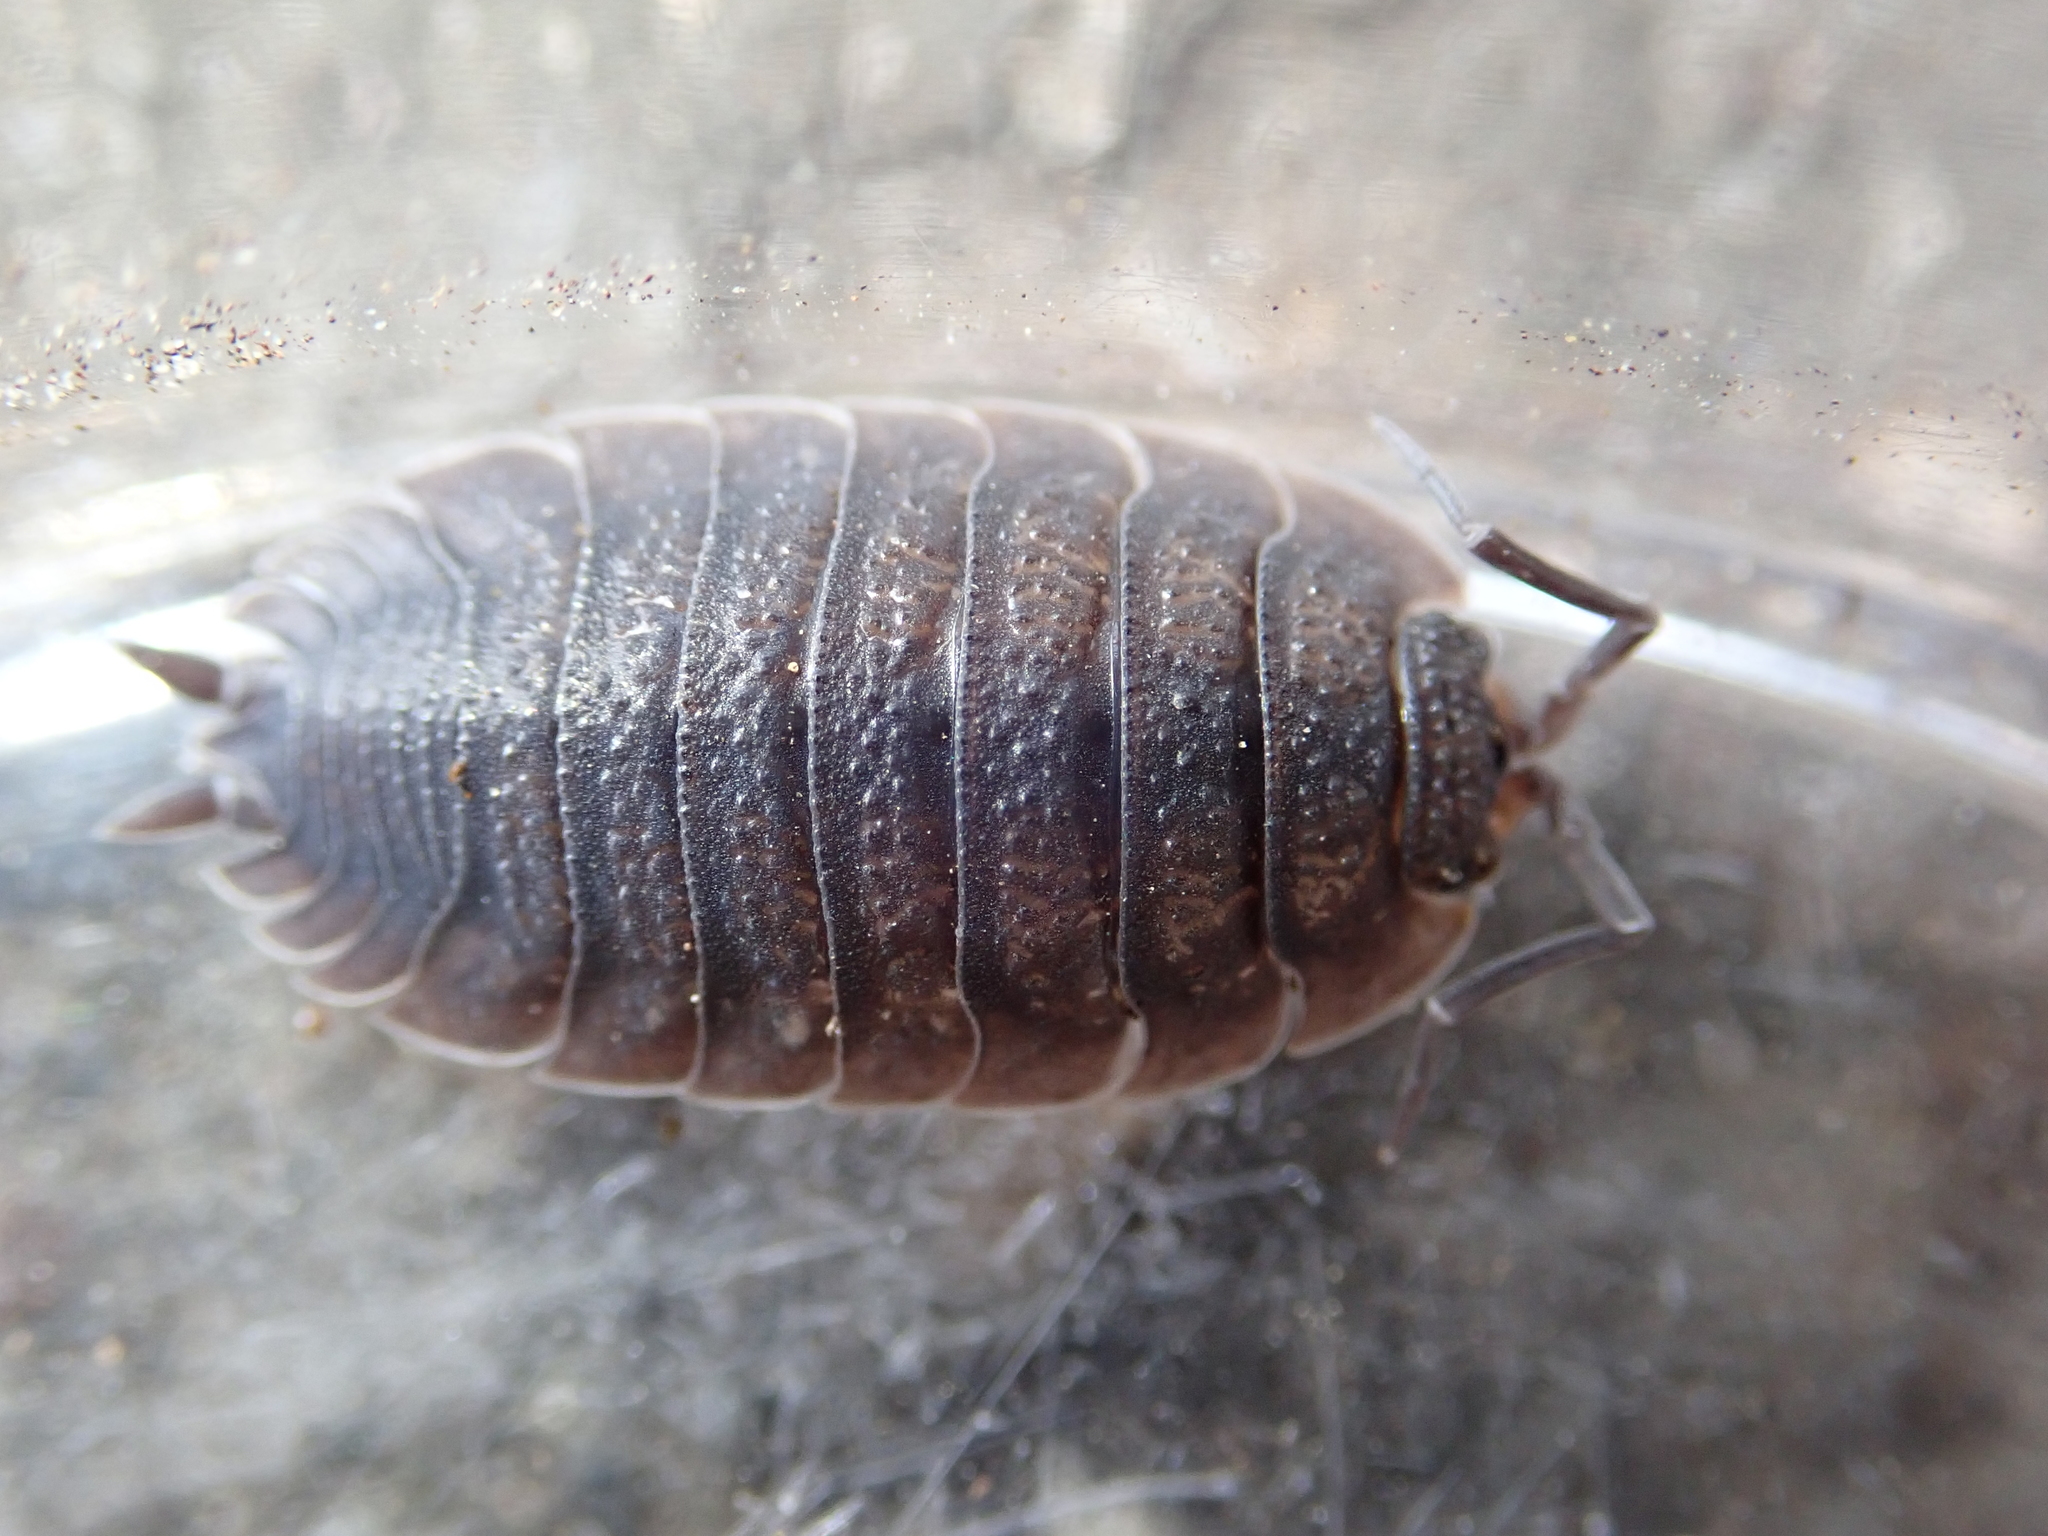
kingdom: Animalia
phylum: Arthropoda
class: Malacostraca
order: Isopoda
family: Porcellionidae
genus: Porcellio
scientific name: Porcellio scaber
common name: Common rough woodlouse
